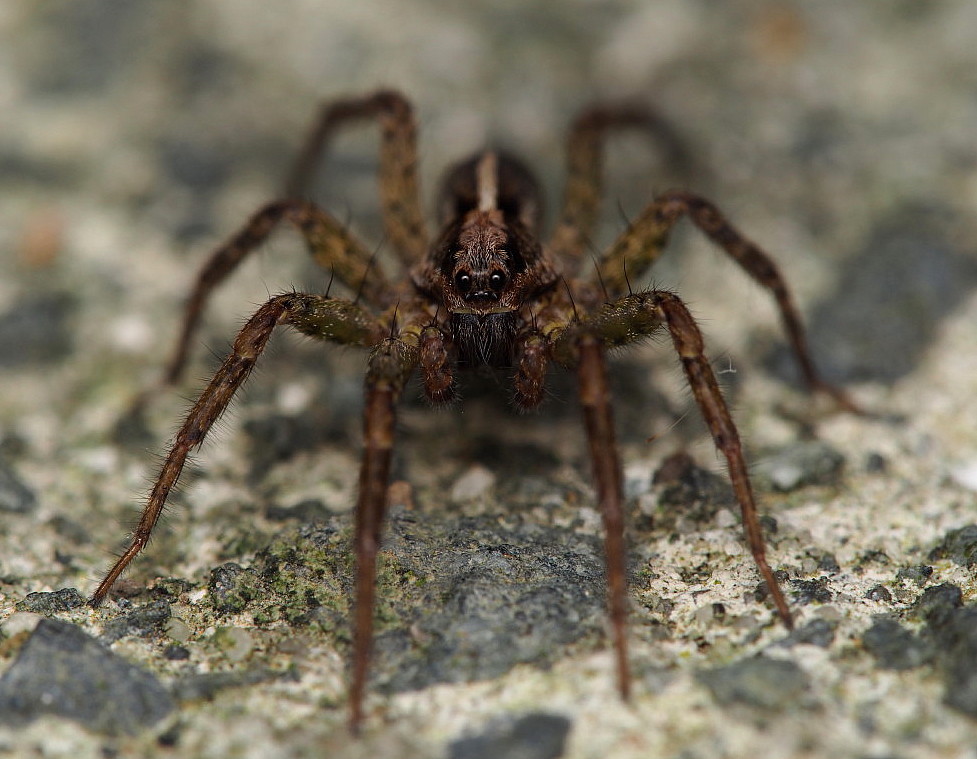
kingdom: Animalia
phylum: Arthropoda
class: Arachnida
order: Araneae
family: Lycosidae
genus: Anoteropsis
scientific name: Anoteropsis hilaris
